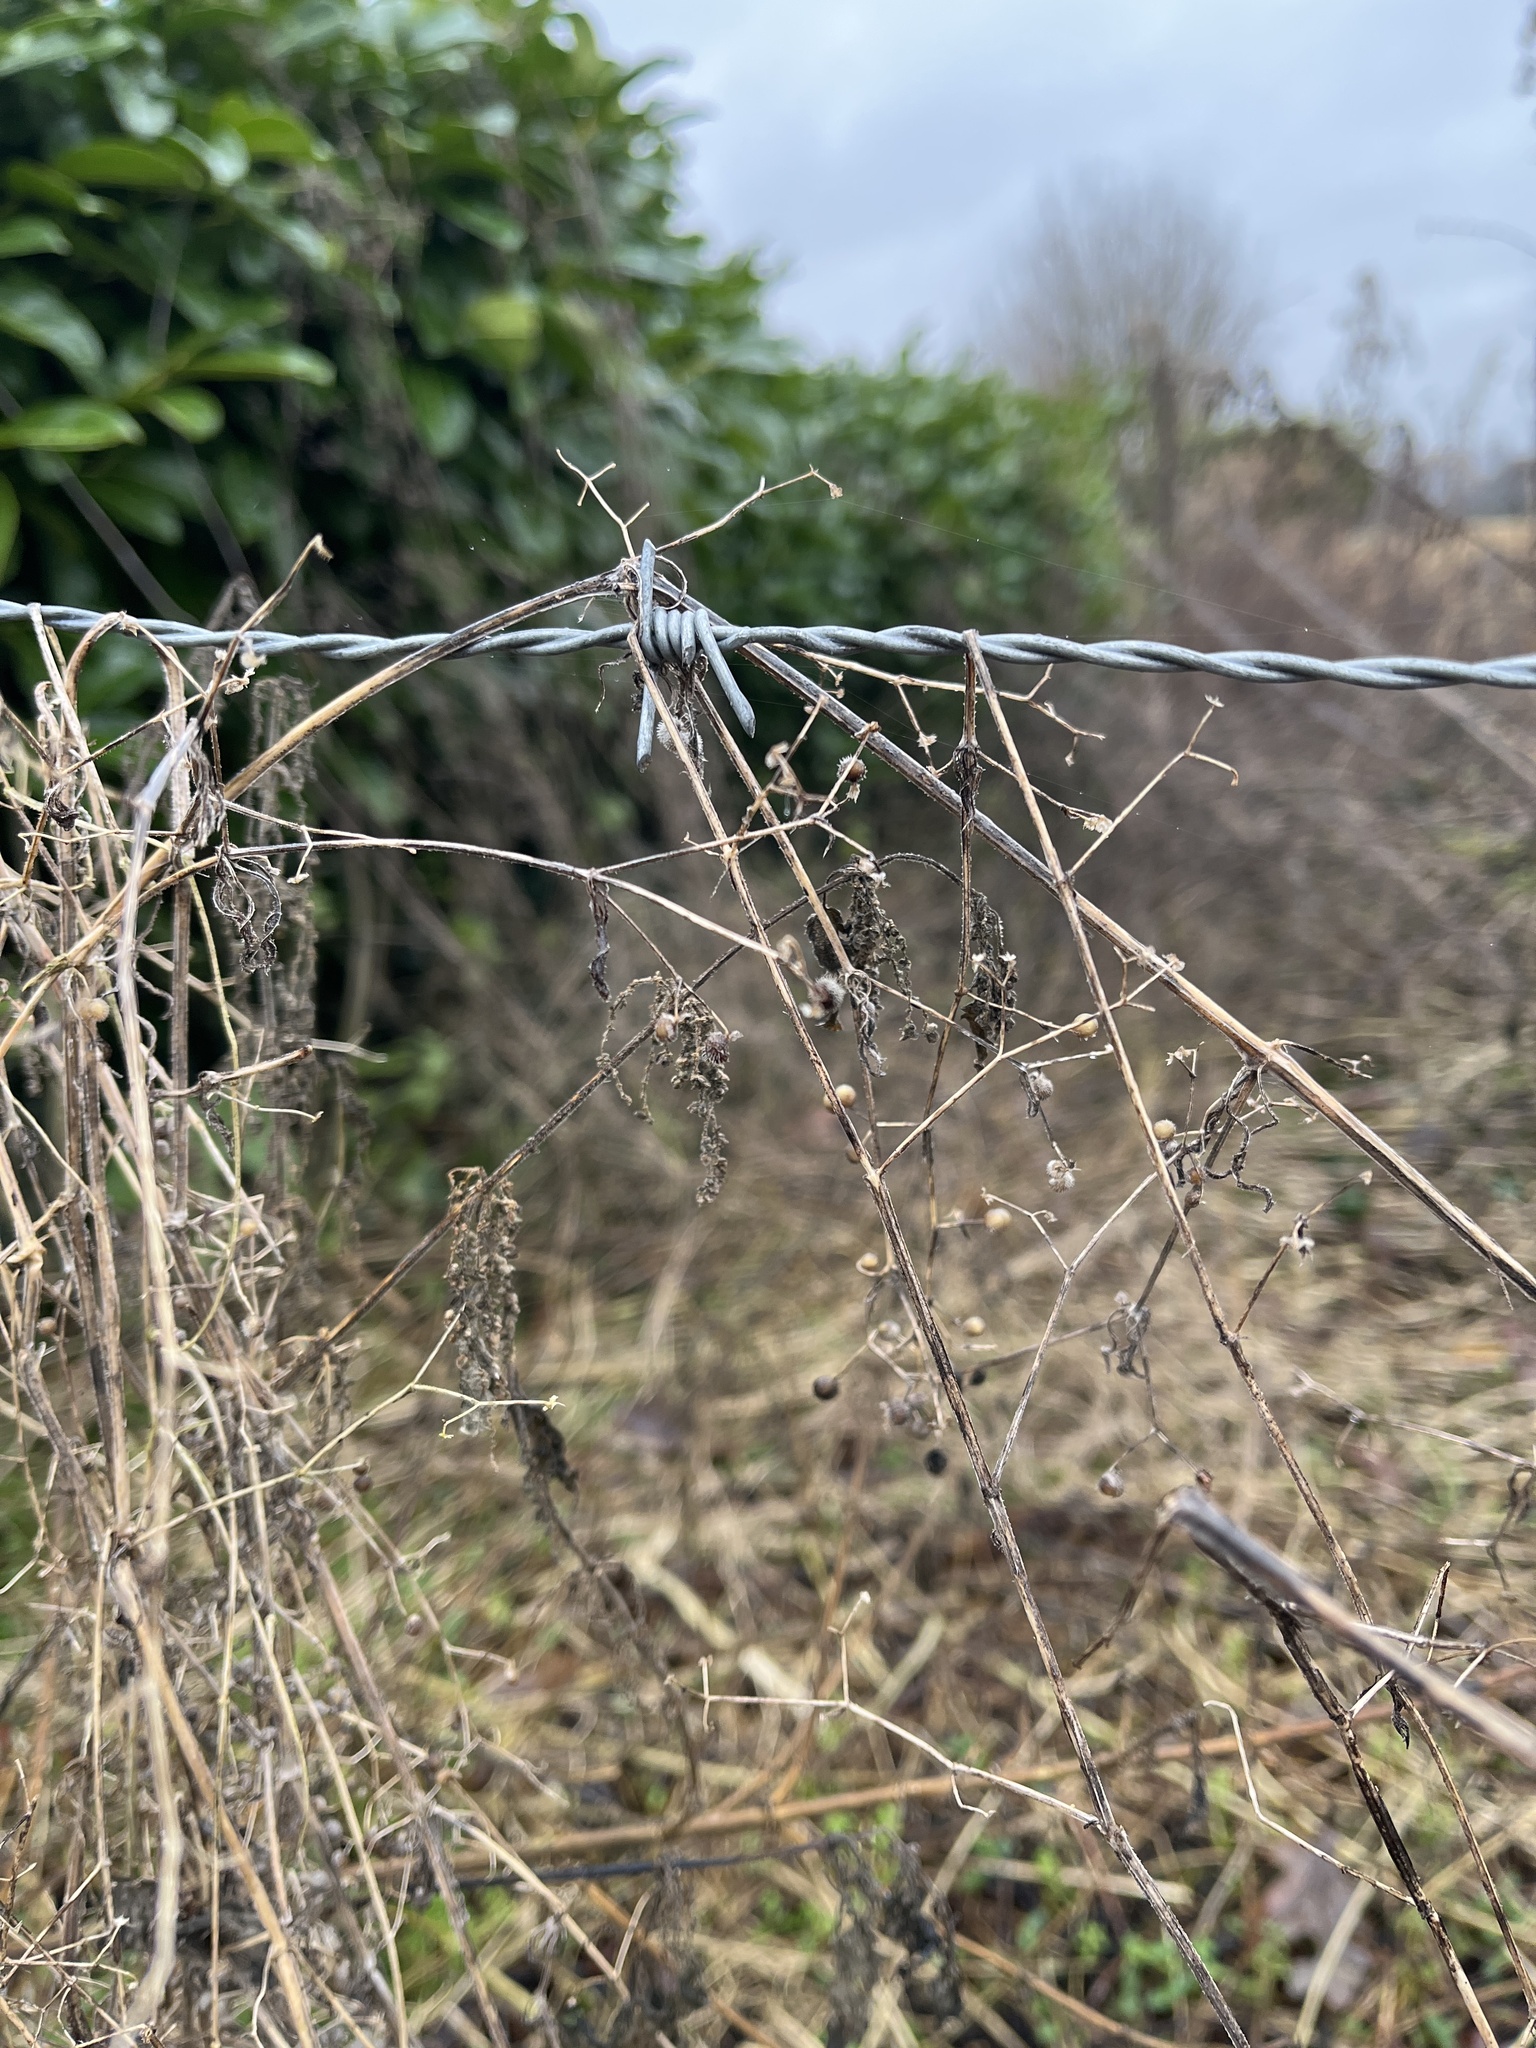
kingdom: Plantae
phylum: Tracheophyta
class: Magnoliopsida
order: Gentianales
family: Rubiaceae
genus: Galium
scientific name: Galium aparine
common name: Cleavers
